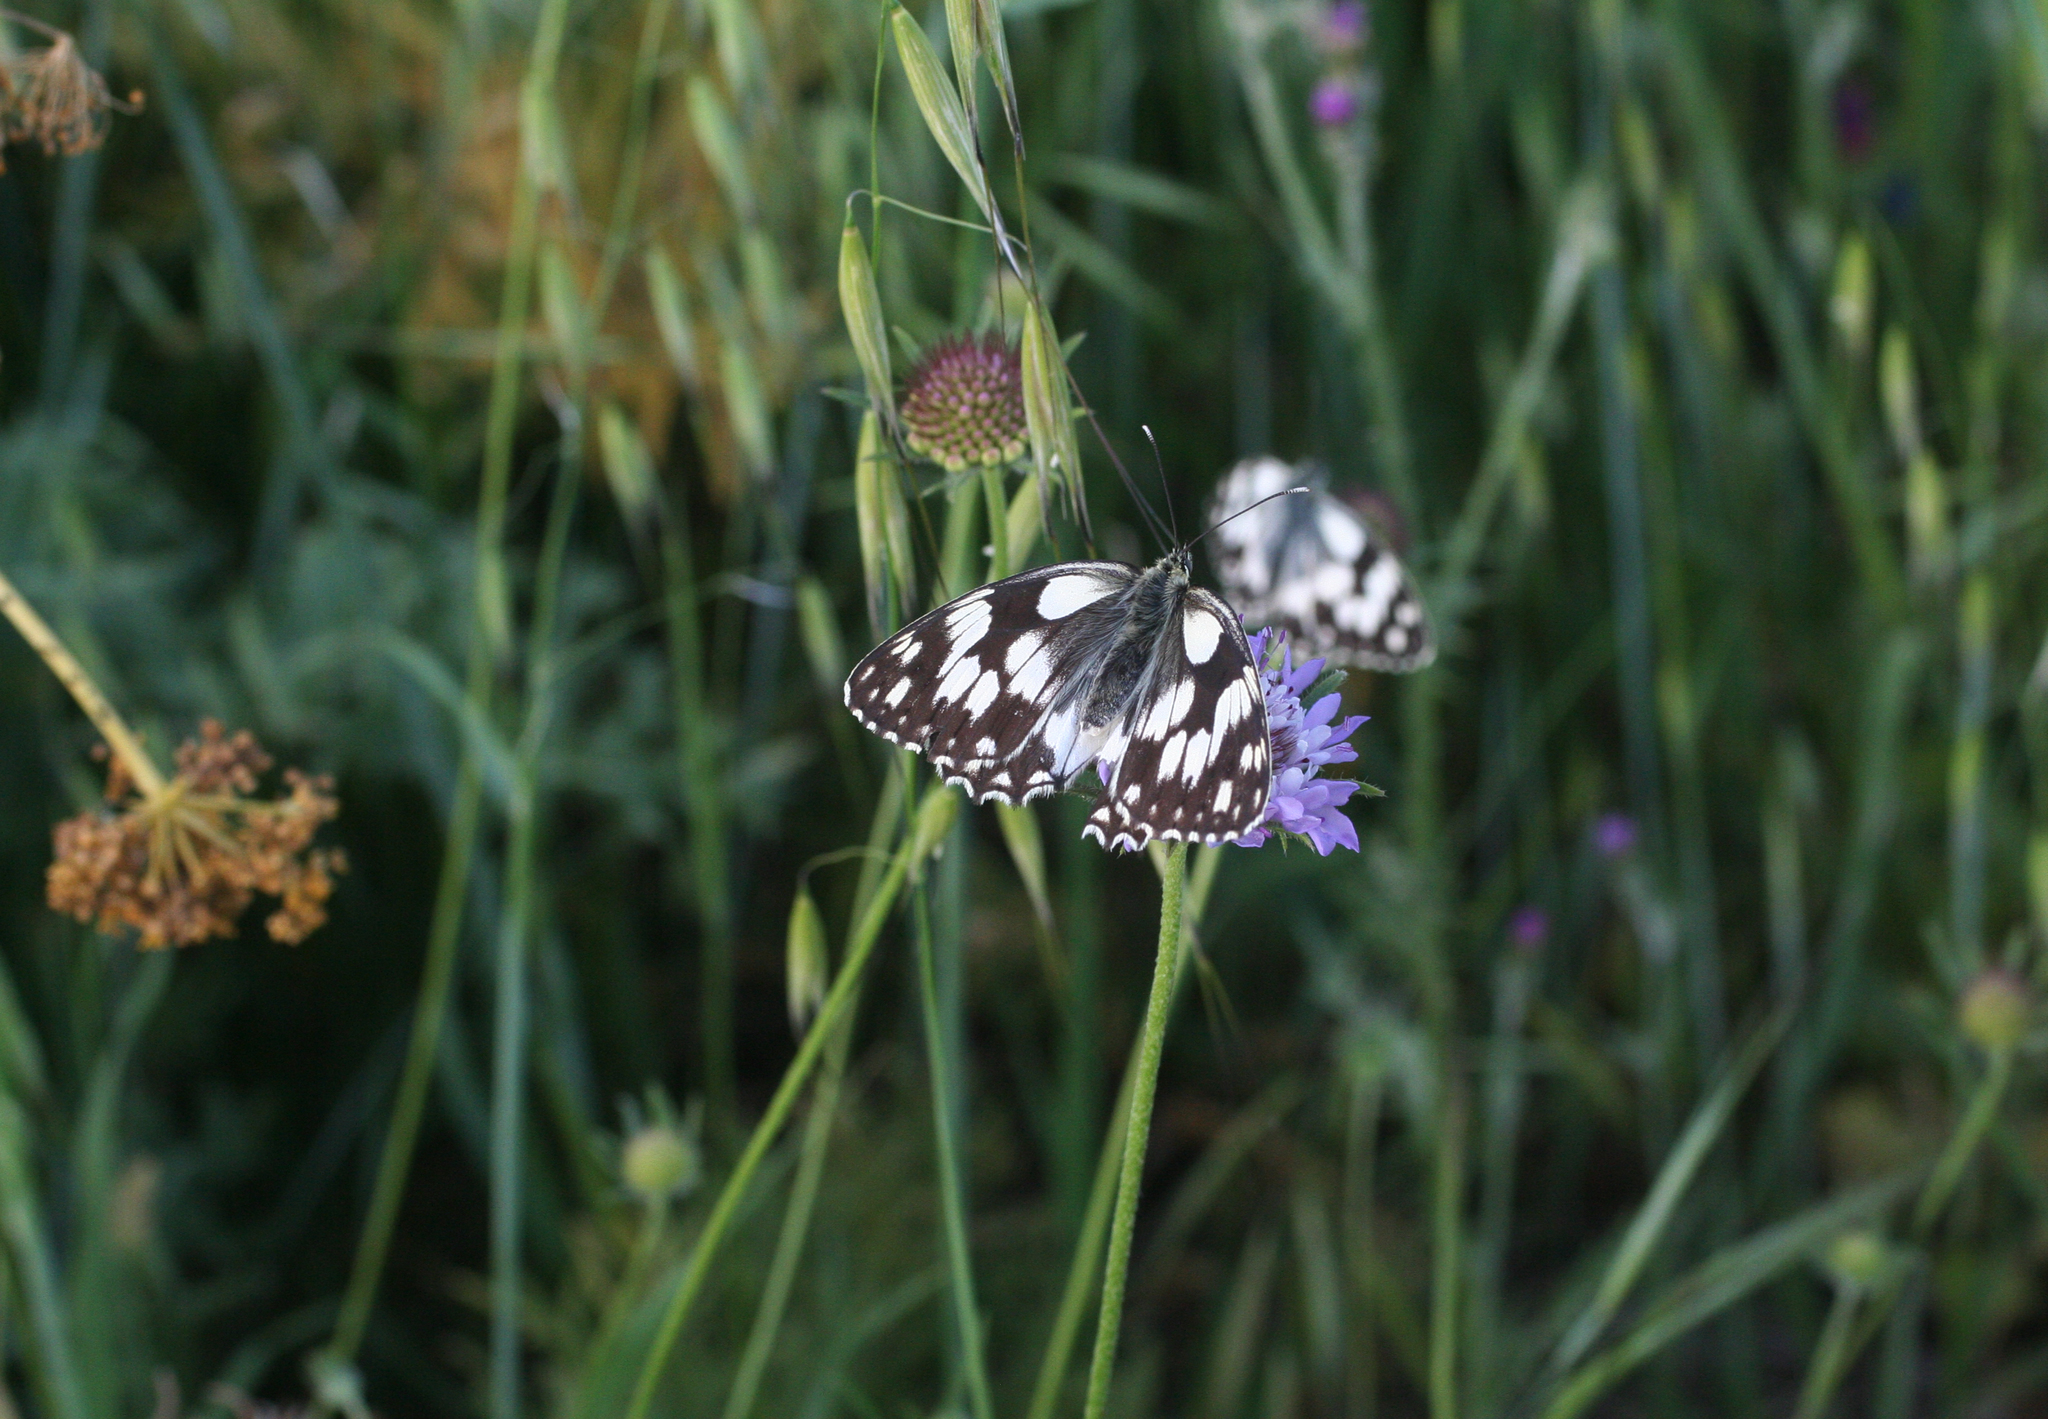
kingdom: Animalia
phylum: Arthropoda
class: Insecta
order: Lepidoptera
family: Nymphalidae
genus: Melanargia
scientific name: Melanargia lucasi
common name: Moroccan marbled white
